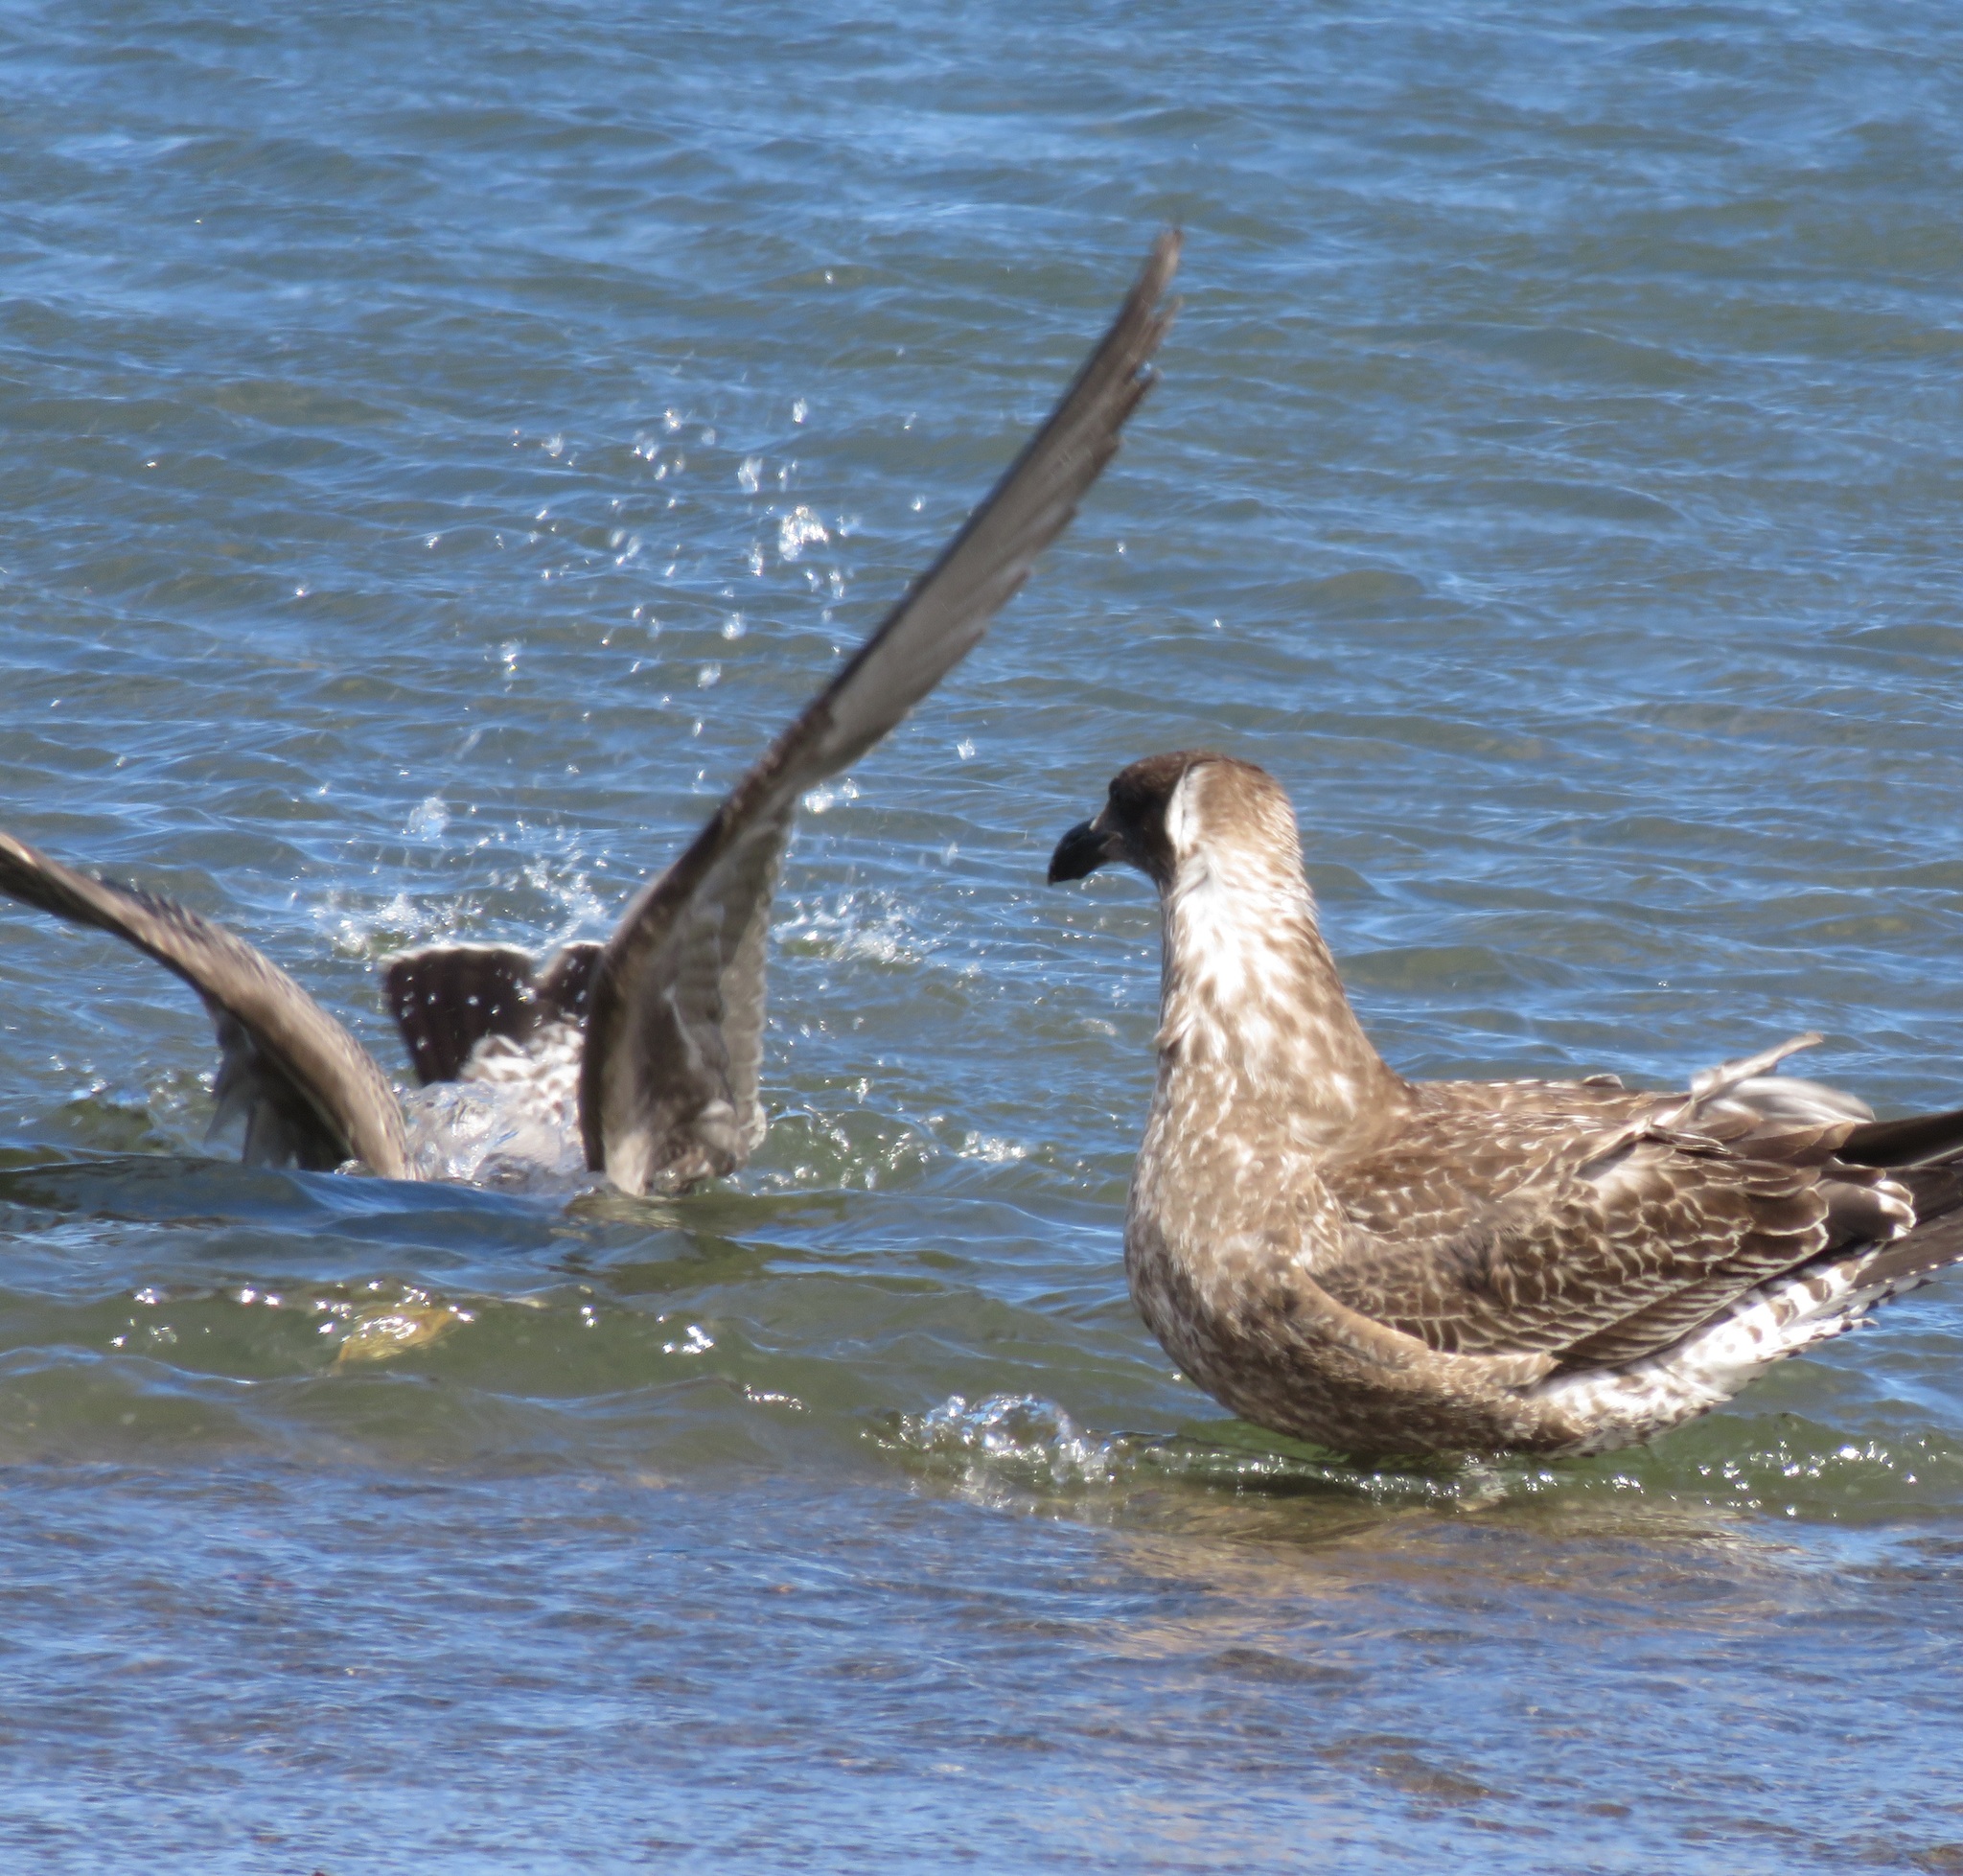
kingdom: Animalia
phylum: Chordata
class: Aves
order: Charadriiformes
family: Laridae
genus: Larus
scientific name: Larus dominicanus
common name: Kelp gull
